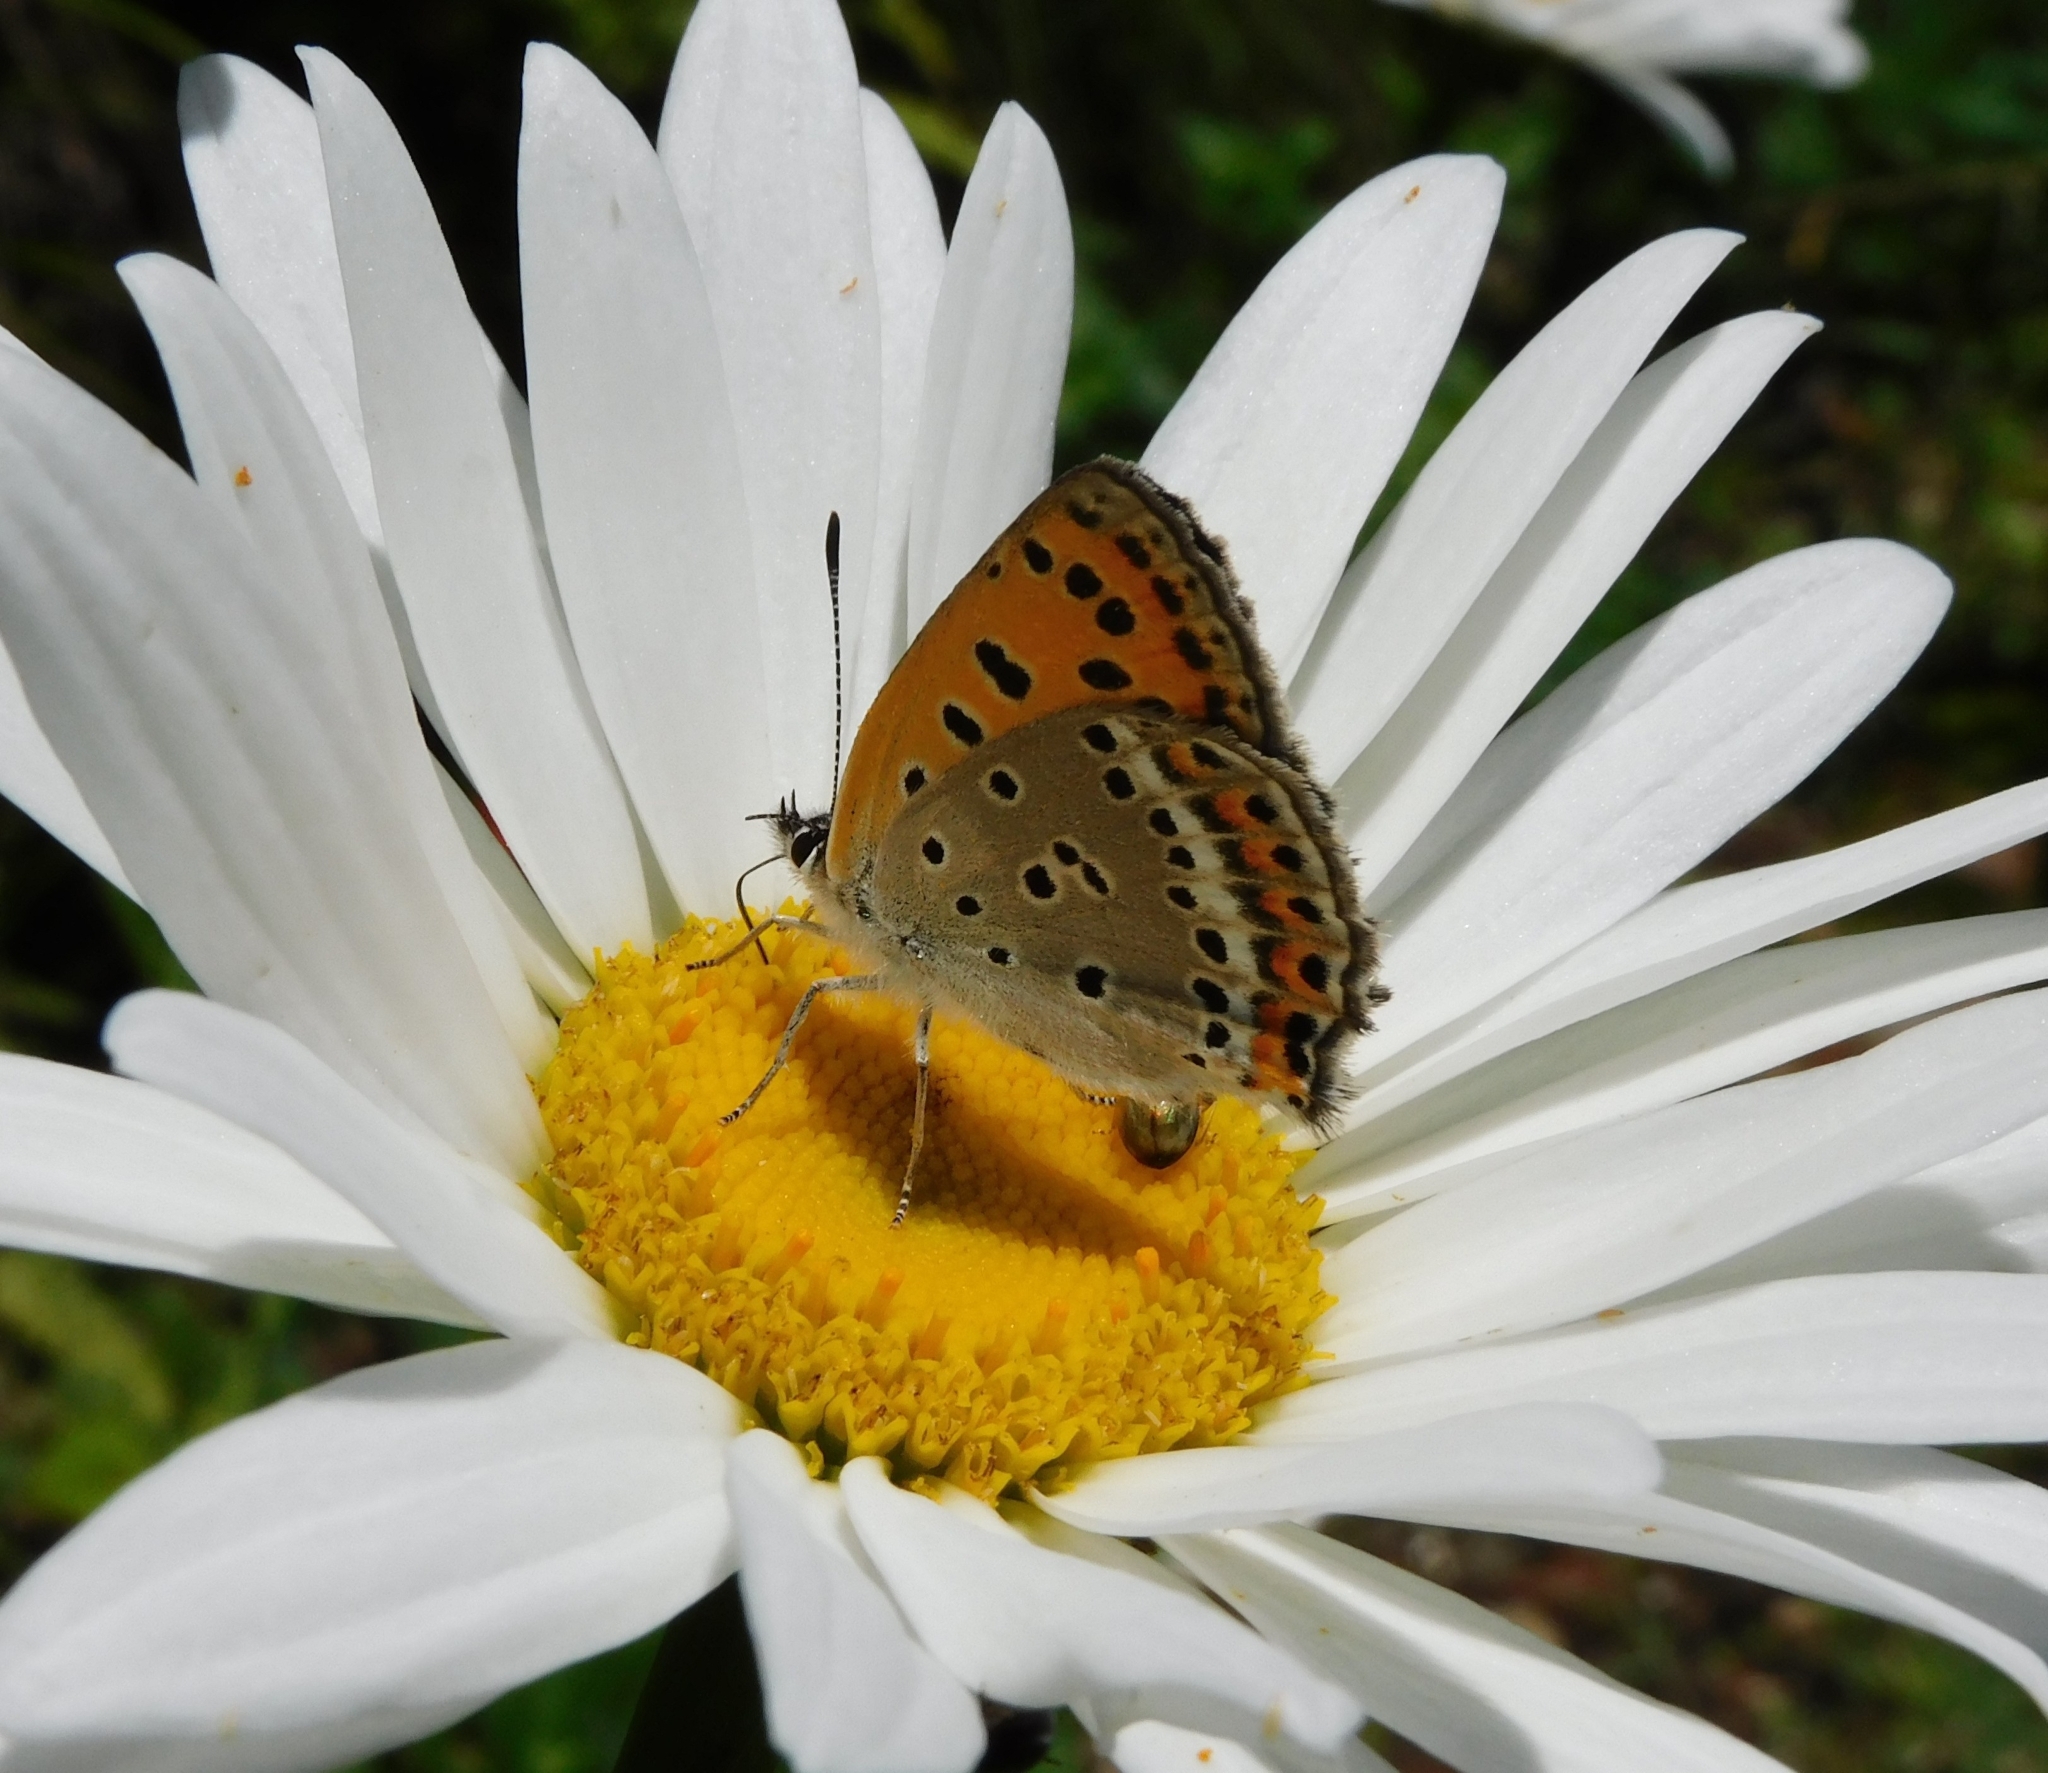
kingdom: Animalia
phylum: Arthropoda
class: Insecta
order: Lepidoptera
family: Lycaenidae
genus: Lycaena
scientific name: Lycaena panava
